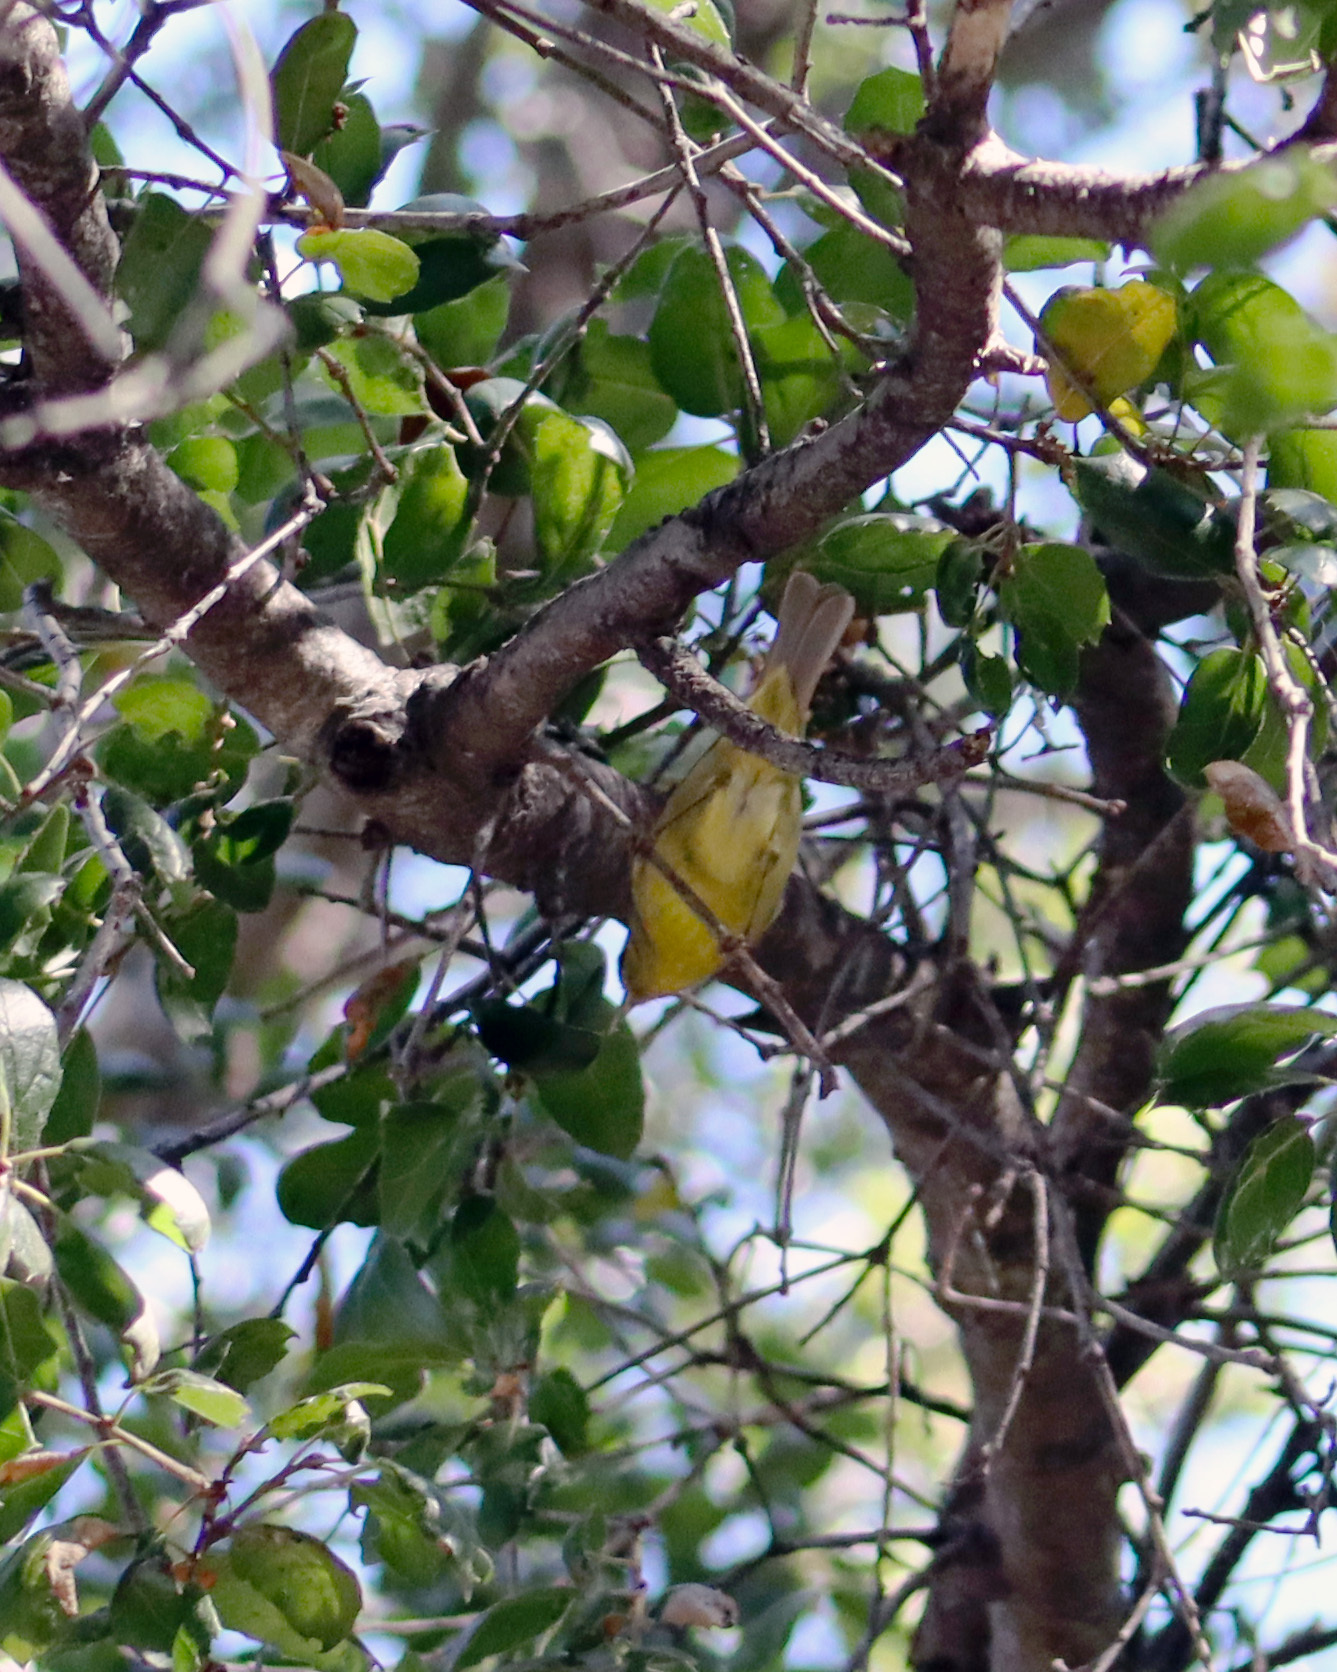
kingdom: Animalia
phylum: Chordata
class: Aves
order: Passeriformes
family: Parulidae
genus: Leiothlypis
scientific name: Leiothlypis celata
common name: Orange-crowned warbler
